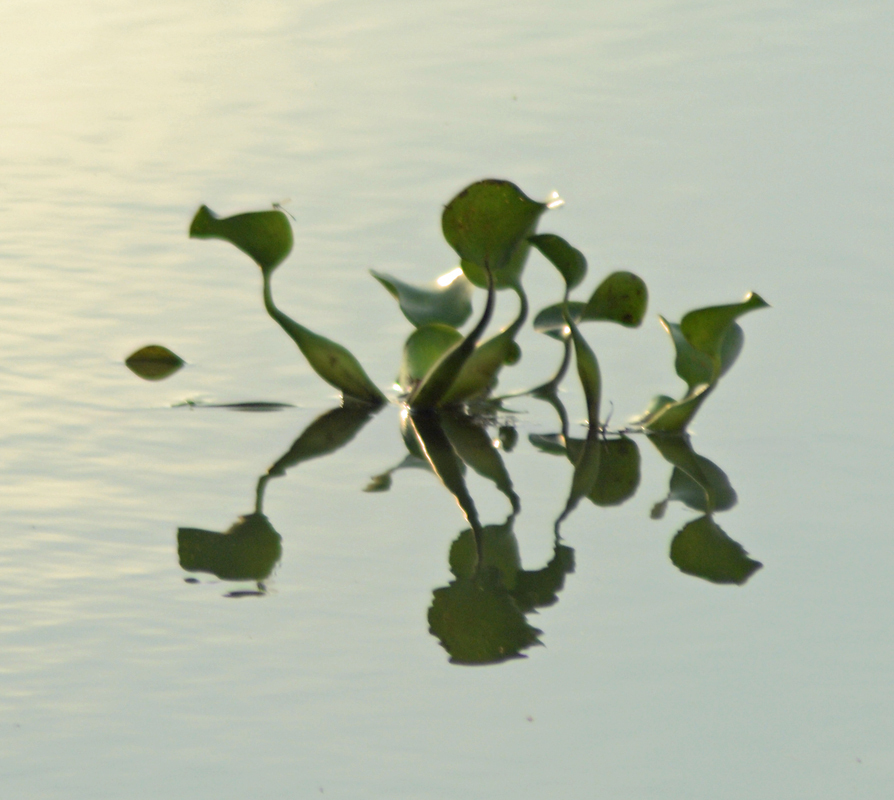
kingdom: Plantae
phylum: Tracheophyta
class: Liliopsida
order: Commelinales
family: Pontederiaceae
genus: Pontederia
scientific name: Pontederia crassipes
